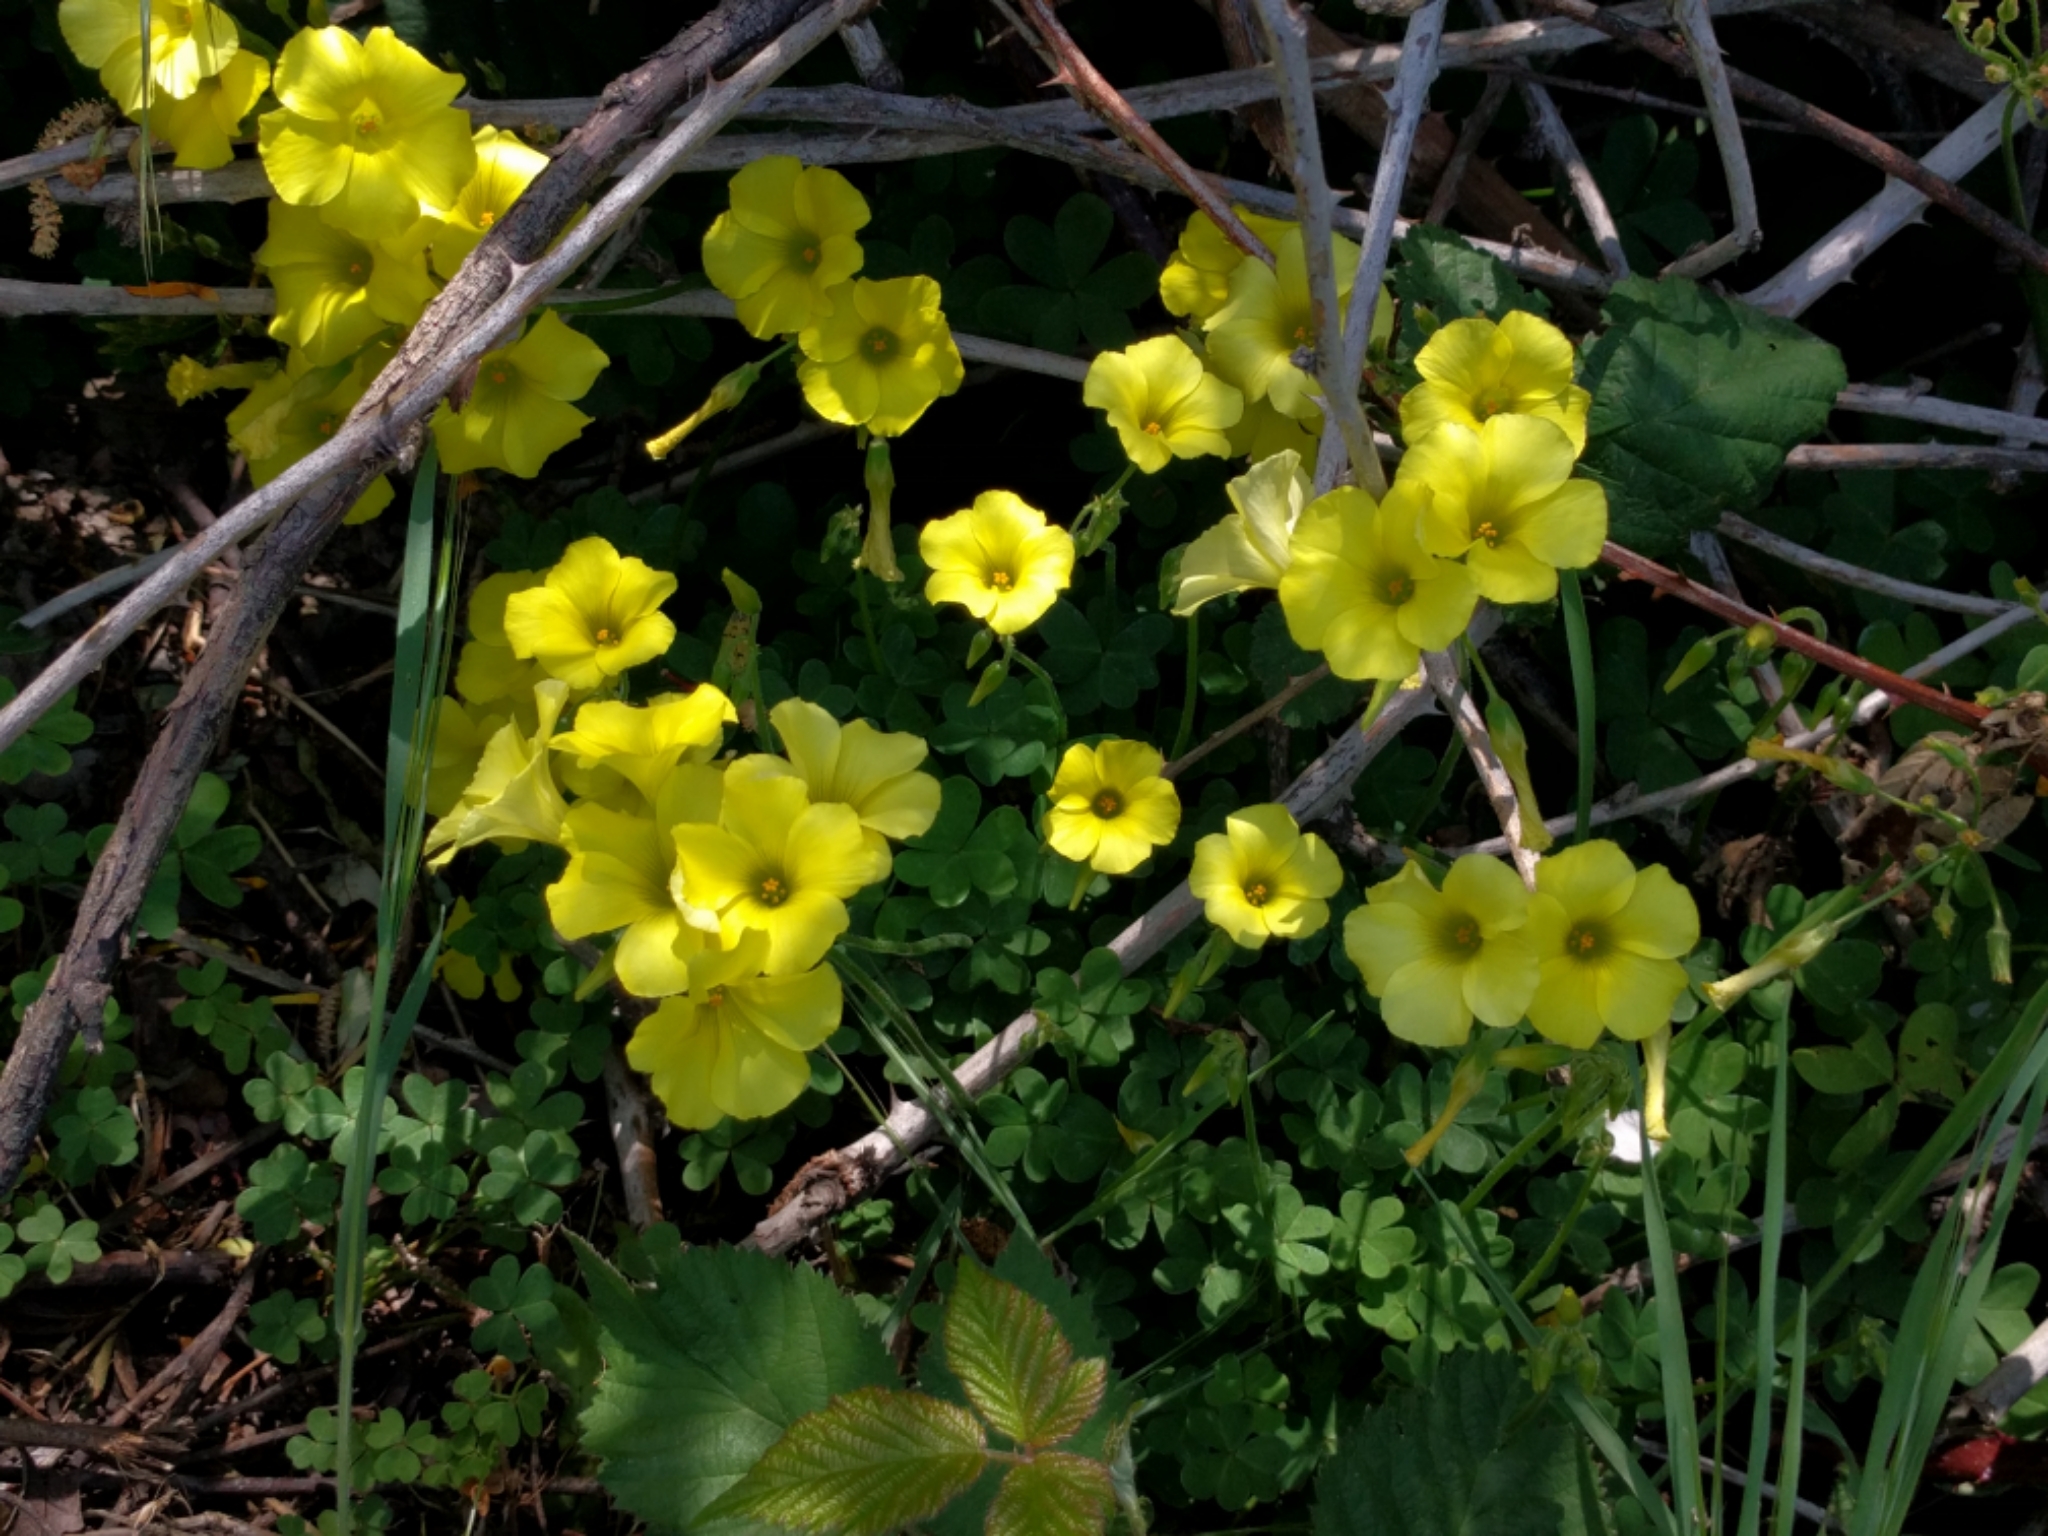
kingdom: Plantae
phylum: Tracheophyta
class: Magnoliopsida
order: Oxalidales
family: Oxalidaceae
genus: Oxalis
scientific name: Oxalis pes-caprae
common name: Bermuda-buttercup
